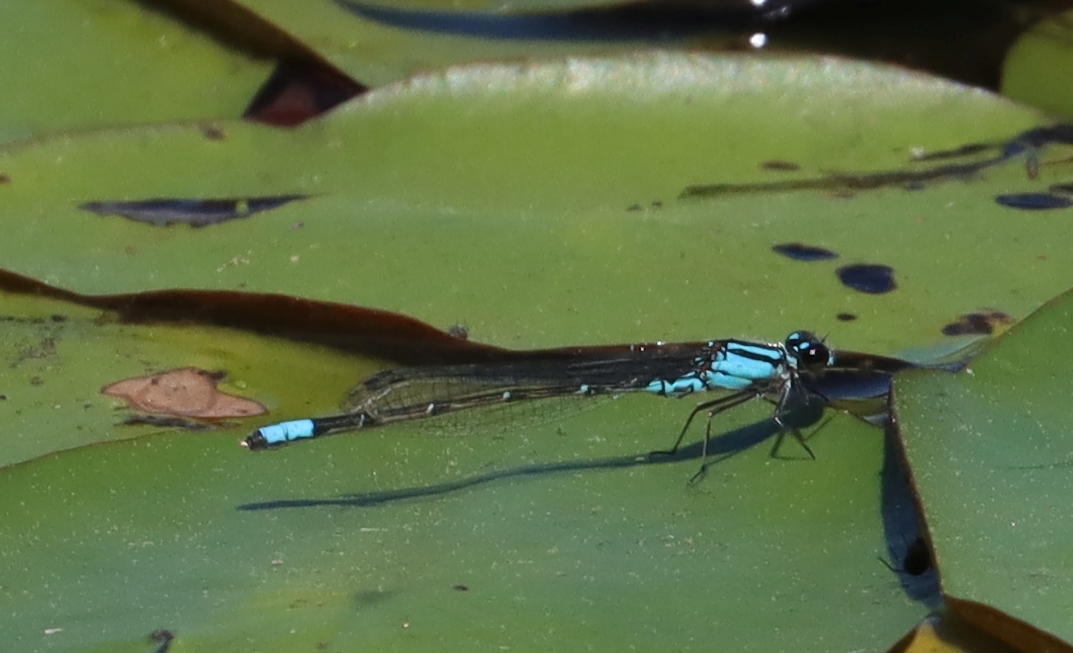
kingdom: Animalia
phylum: Arthropoda
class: Insecta
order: Odonata
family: Coenagrionidae
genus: Enallagma
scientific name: Enallagma geminatum
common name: Skimming bluet
